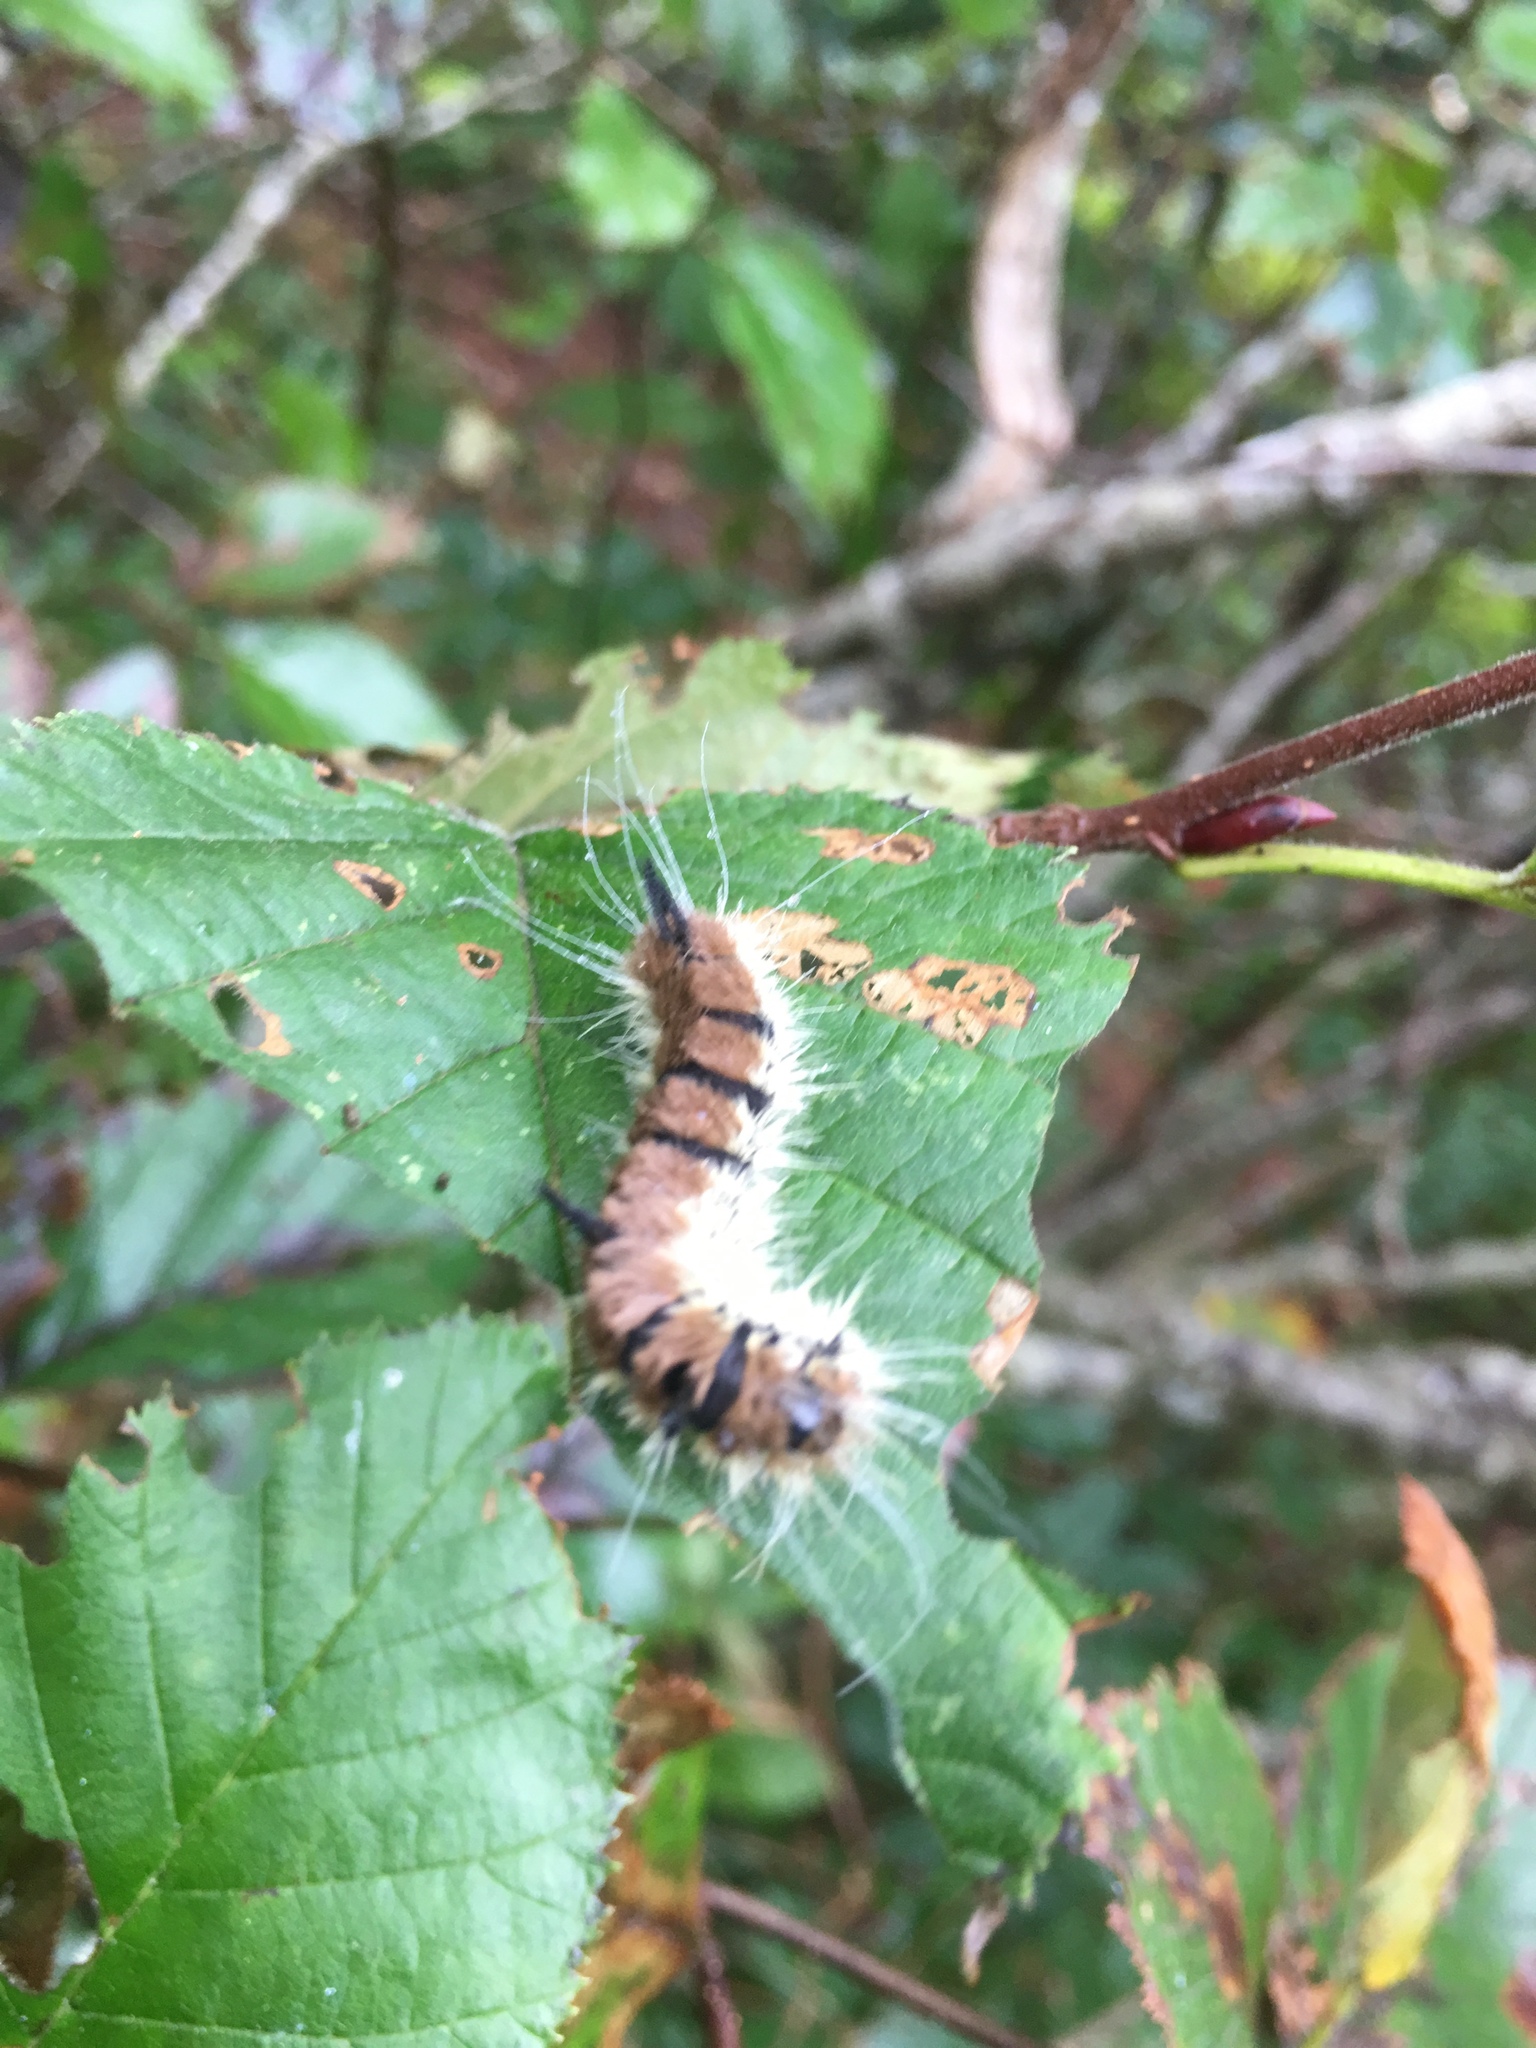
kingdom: Animalia
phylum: Arthropoda
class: Insecta
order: Lepidoptera
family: Noctuidae
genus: Acronicta
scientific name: Acronicta insita
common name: Large gray dagger
